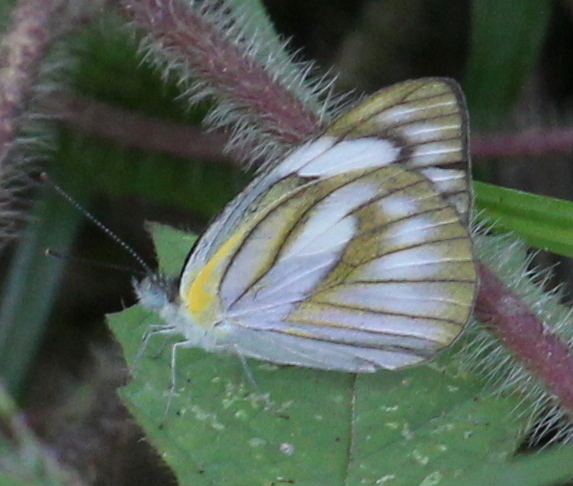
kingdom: Animalia
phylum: Arthropoda
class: Insecta
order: Lepidoptera
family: Pieridae
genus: Appias
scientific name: Appias libythea
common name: Striped albatross
